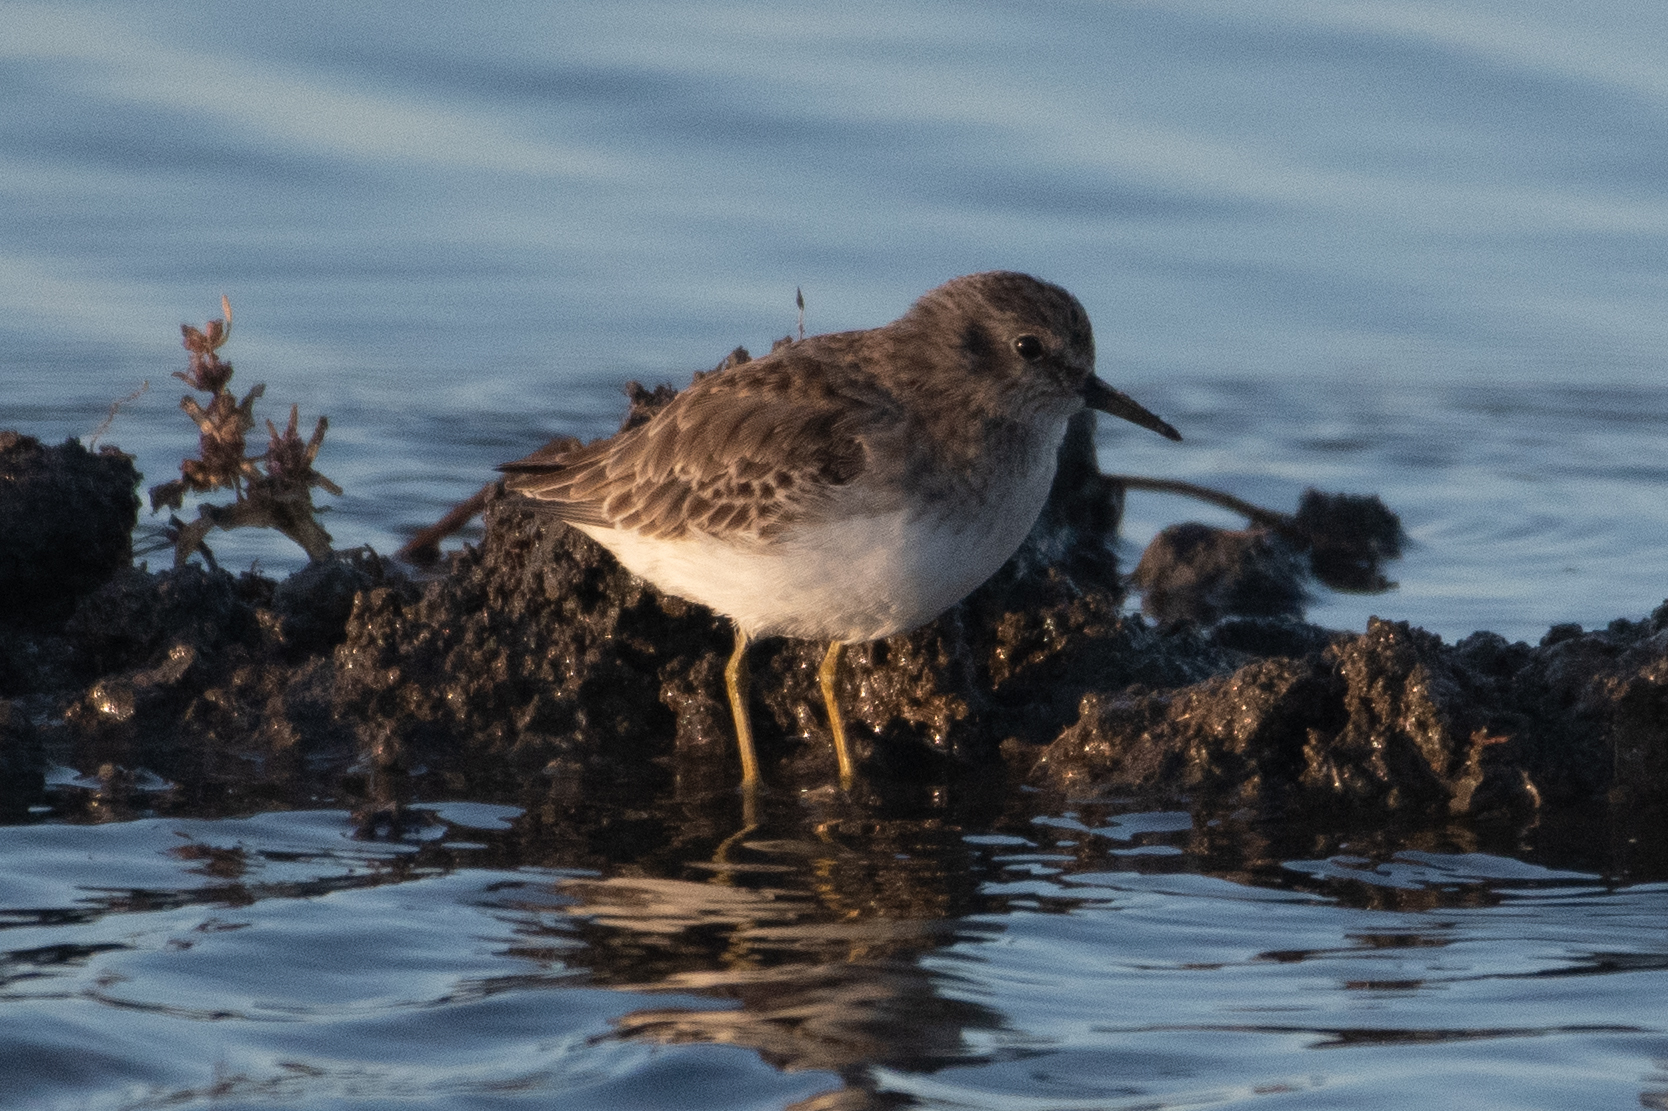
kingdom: Animalia
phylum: Chordata
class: Aves
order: Charadriiformes
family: Scolopacidae
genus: Calidris
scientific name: Calidris minutilla
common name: Least sandpiper
